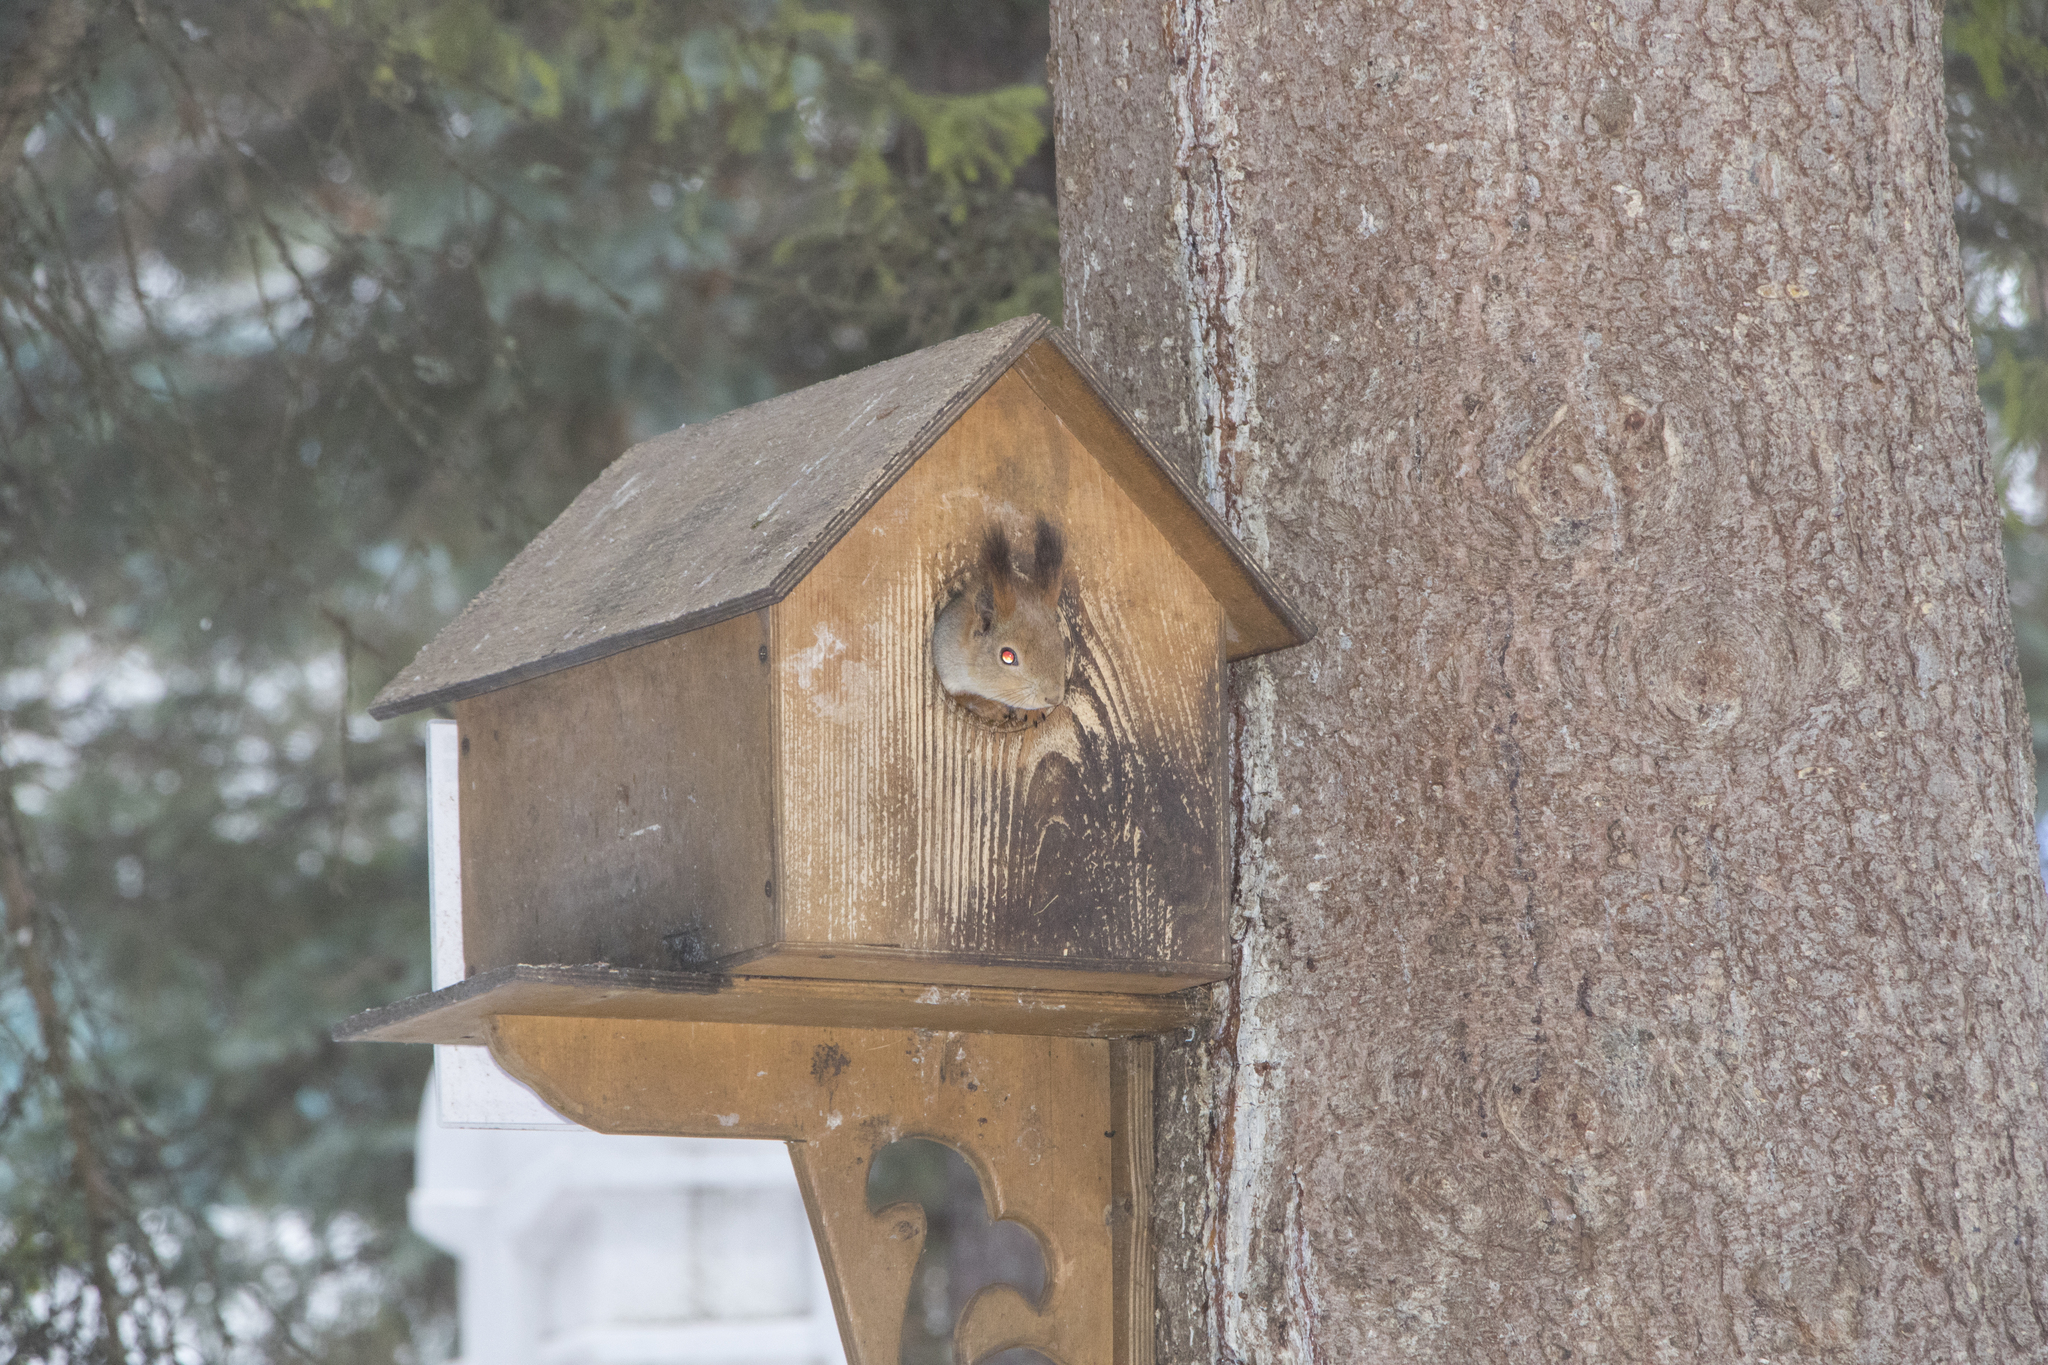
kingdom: Animalia
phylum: Chordata
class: Mammalia
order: Rodentia
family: Sciuridae
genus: Sciurus
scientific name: Sciurus vulgaris
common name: Eurasian red squirrel
